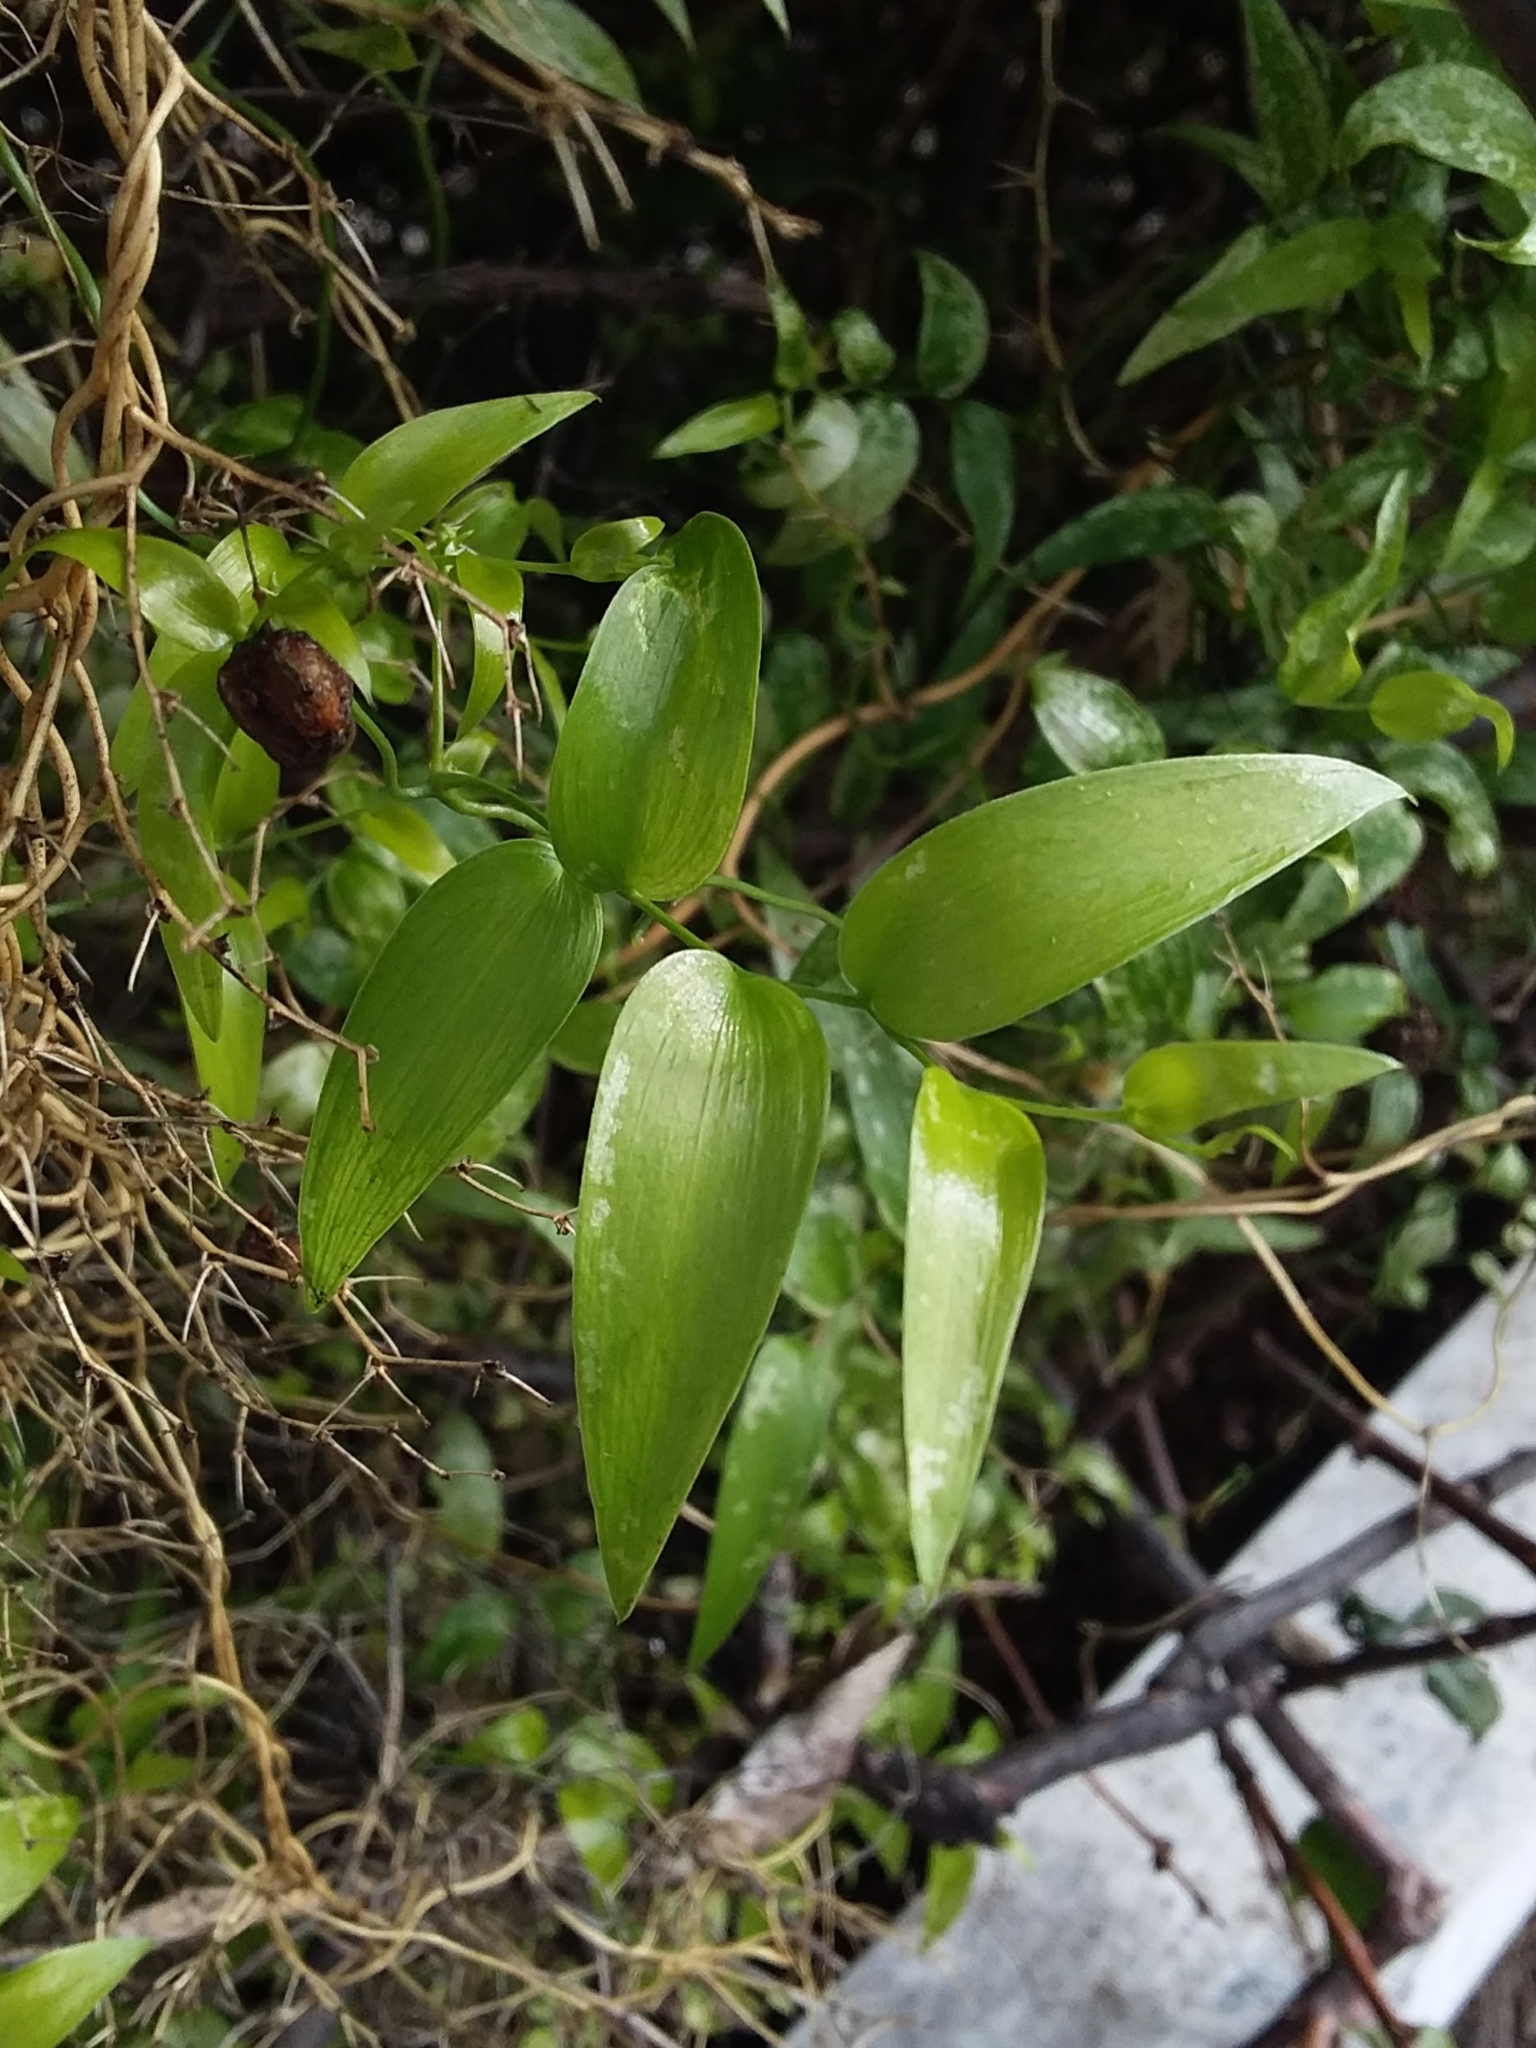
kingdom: Plantae
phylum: Tracheophyta
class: Liliopsida
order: Asparagales
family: Asparagaceae
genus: Asparagus
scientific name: Asparagus asparagoides
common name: African asparagus fern
